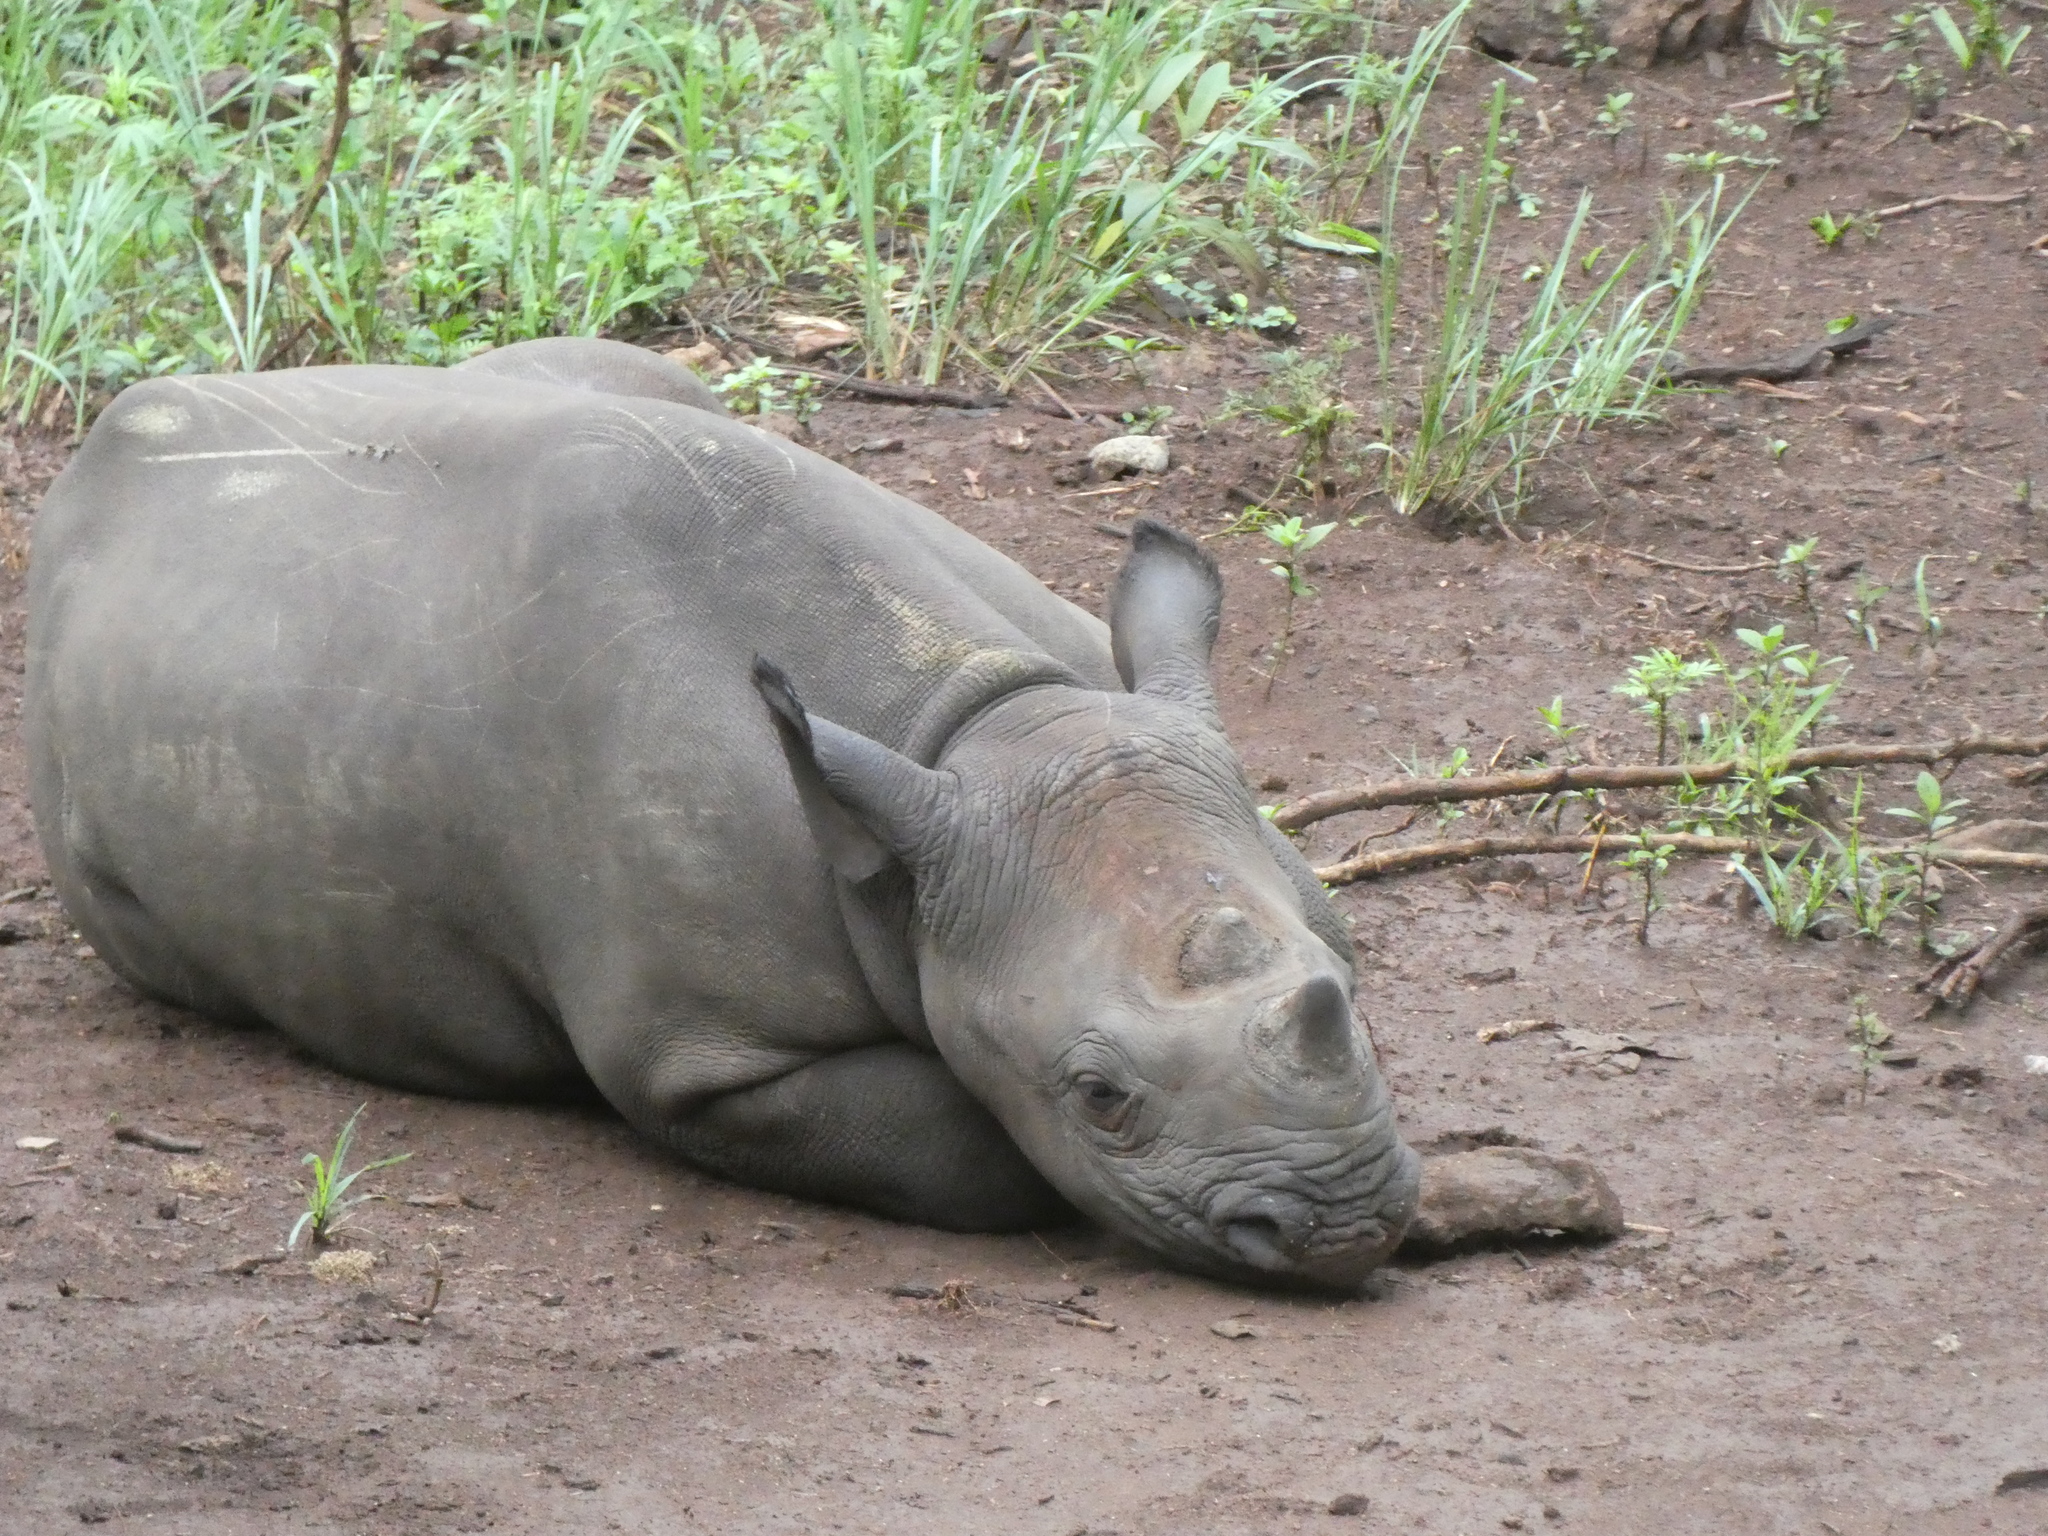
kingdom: Animalia
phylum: Chordata
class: Mammalia
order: Perissodactyla
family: Rhinocerotidae
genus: Diceros
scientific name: Diceros bicornis
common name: Black rhinoceros
